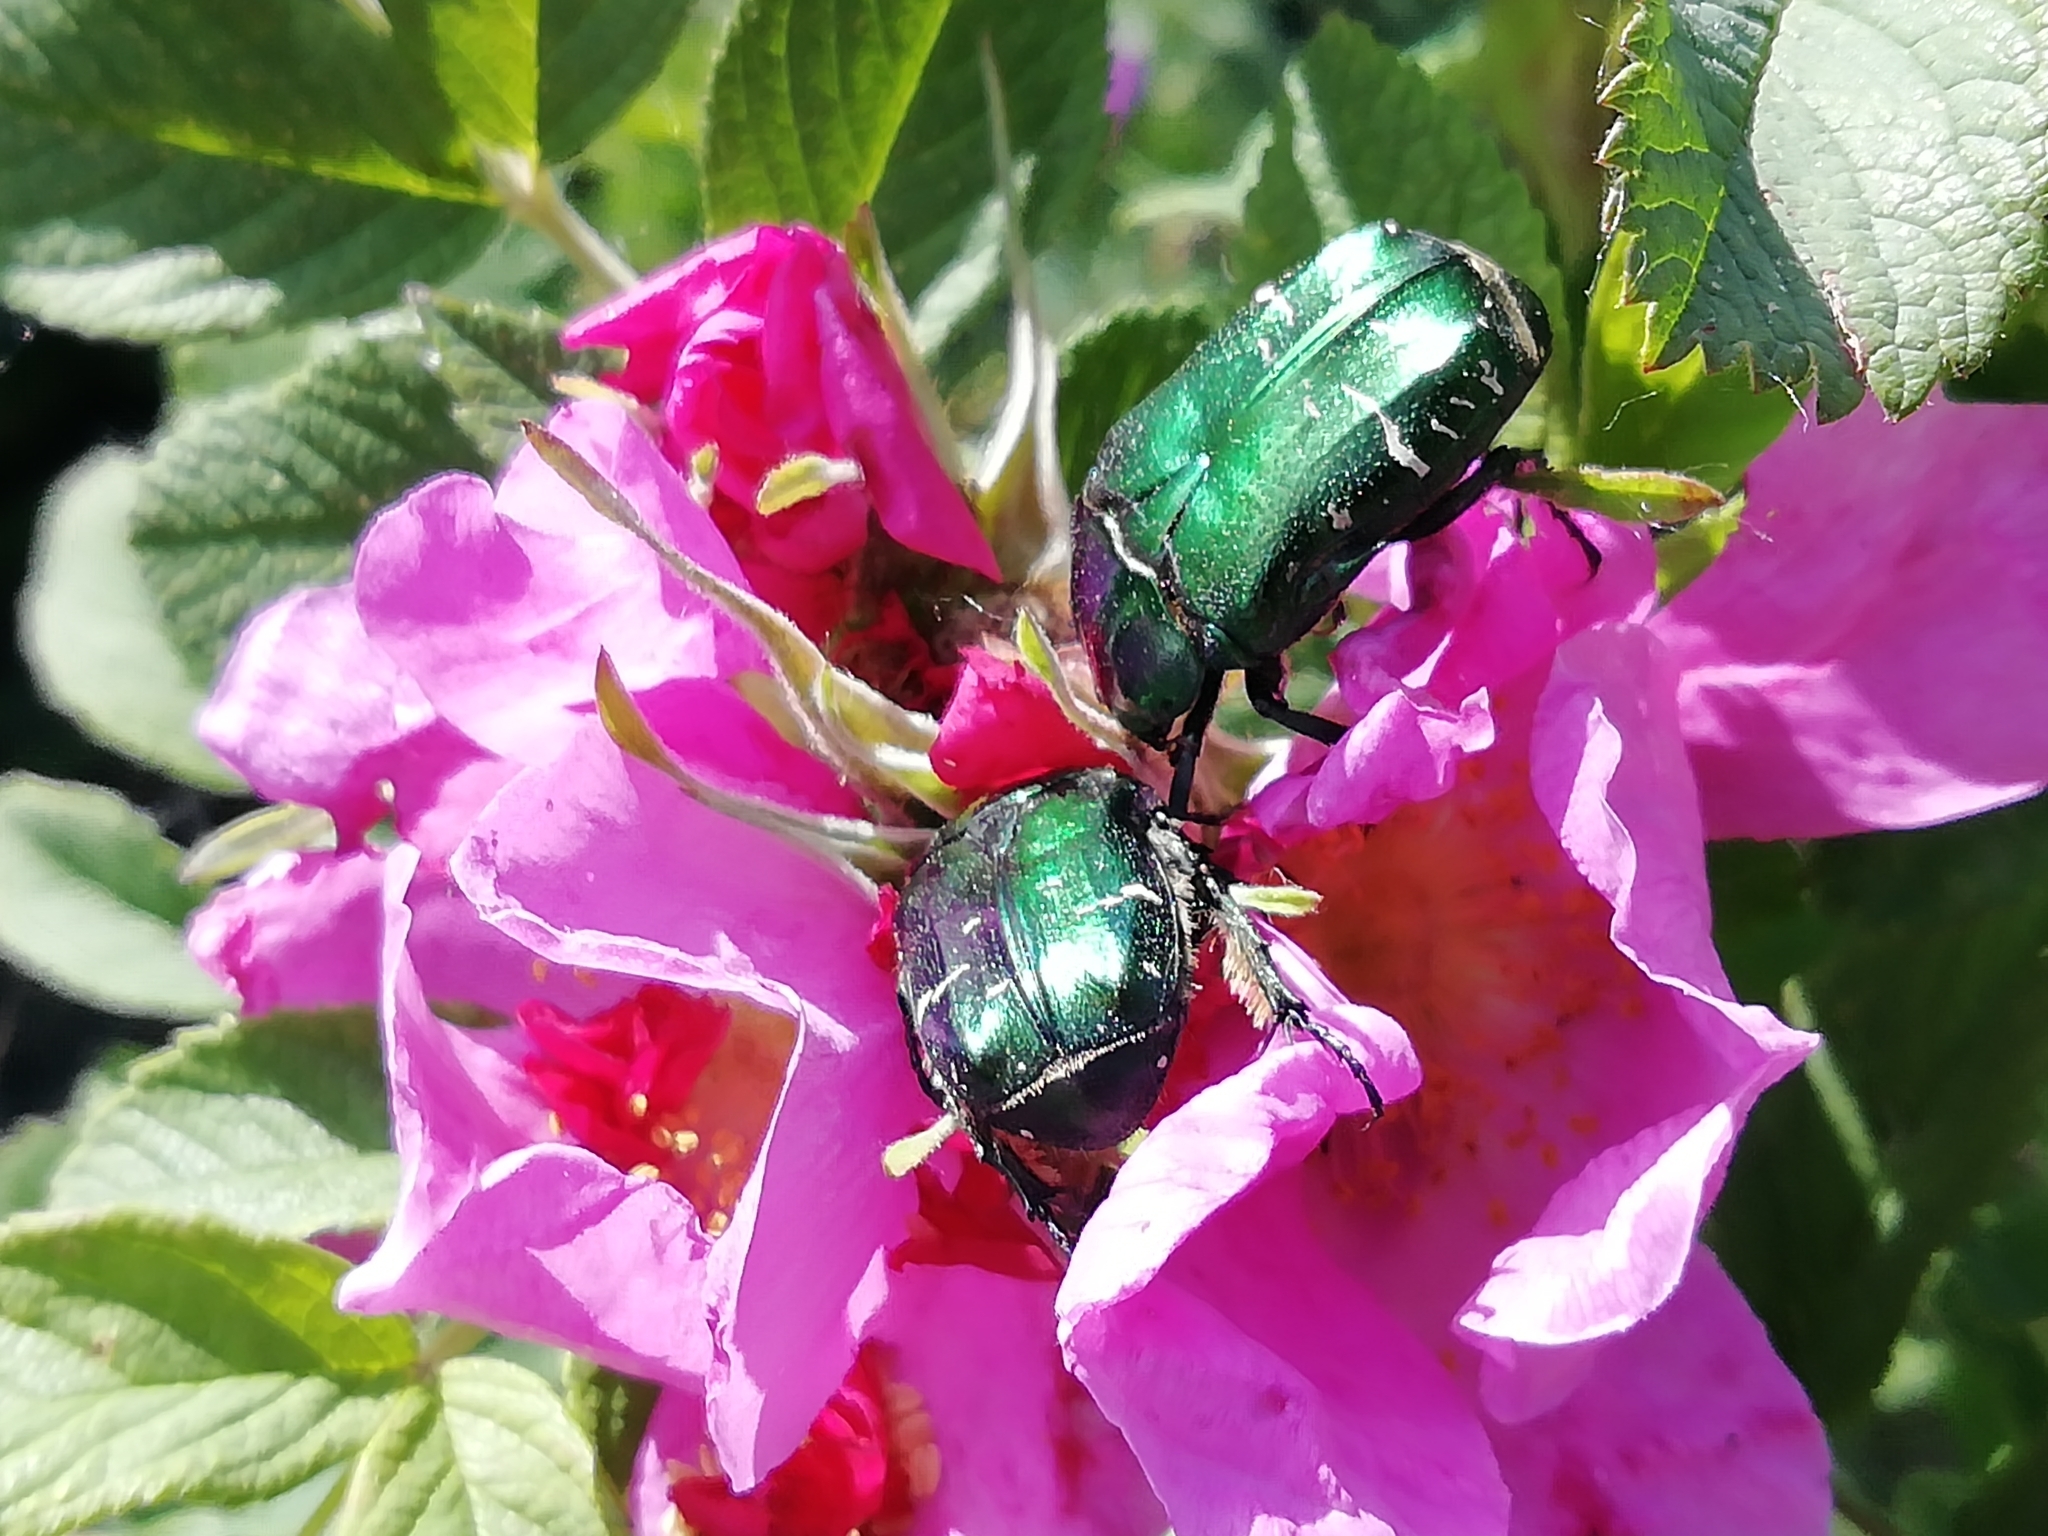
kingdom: Animalia
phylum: Arthropoda
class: Insecta
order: Coleoptera
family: Scarabaeidae
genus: Cetonia
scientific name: Cetonia aurata
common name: Rose chafer
